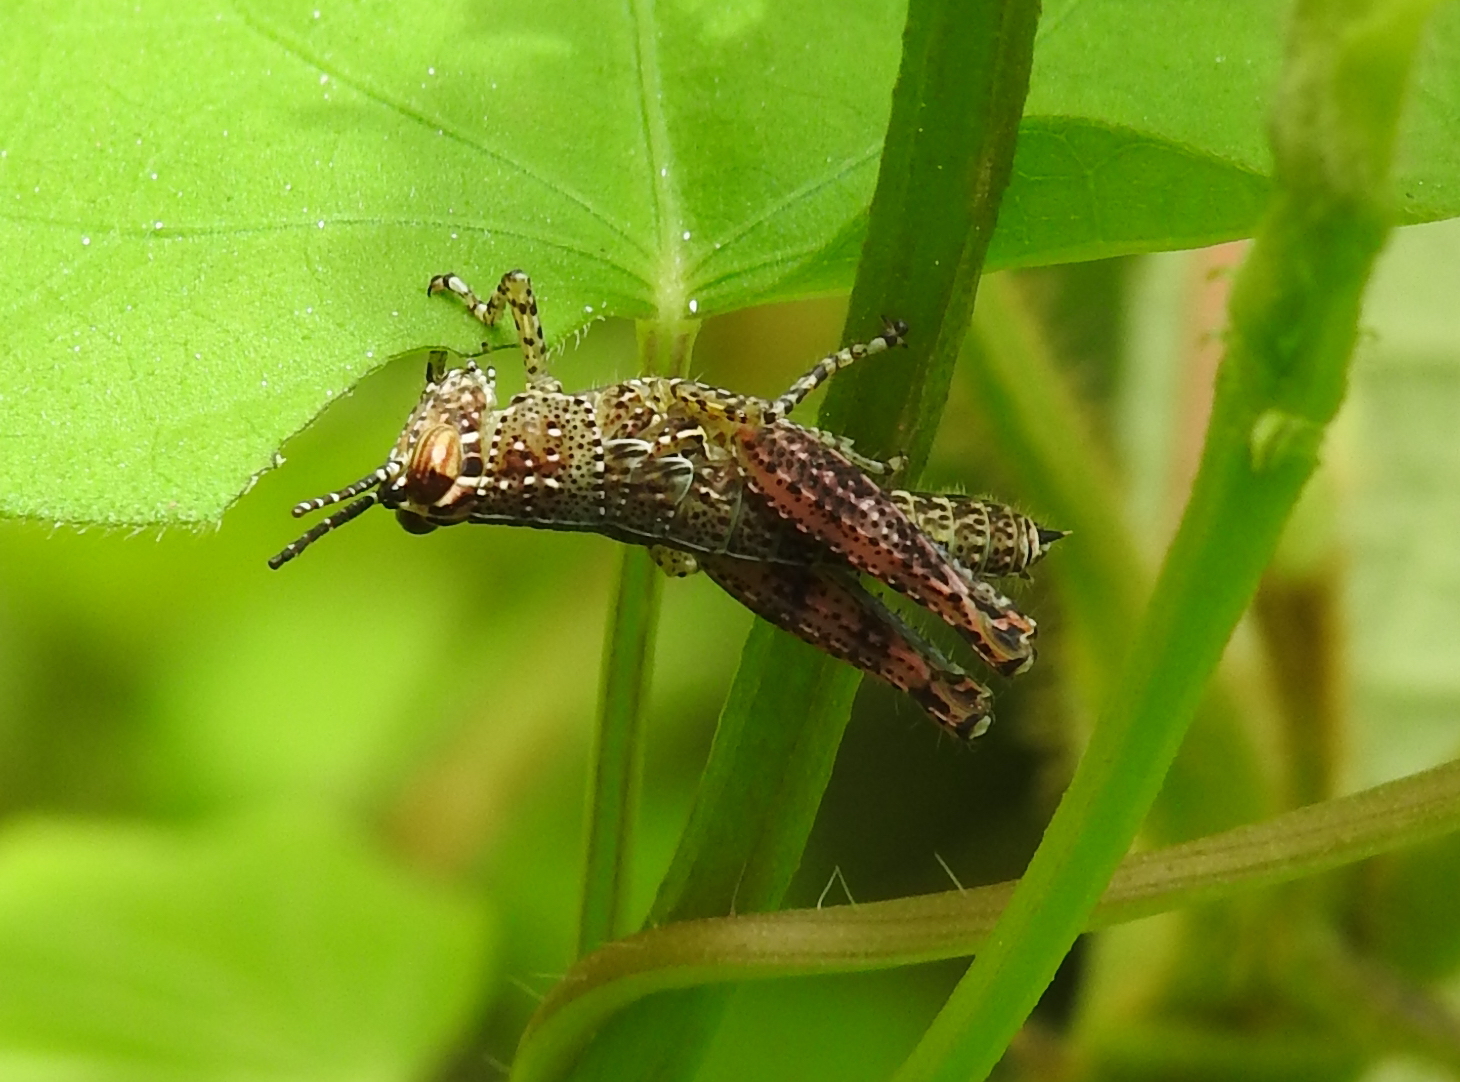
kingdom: Animalia
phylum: Arthropoda
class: Insecta
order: Orthoptera
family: Acrididae
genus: Xenocatantops
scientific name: Xenocatantops humile
